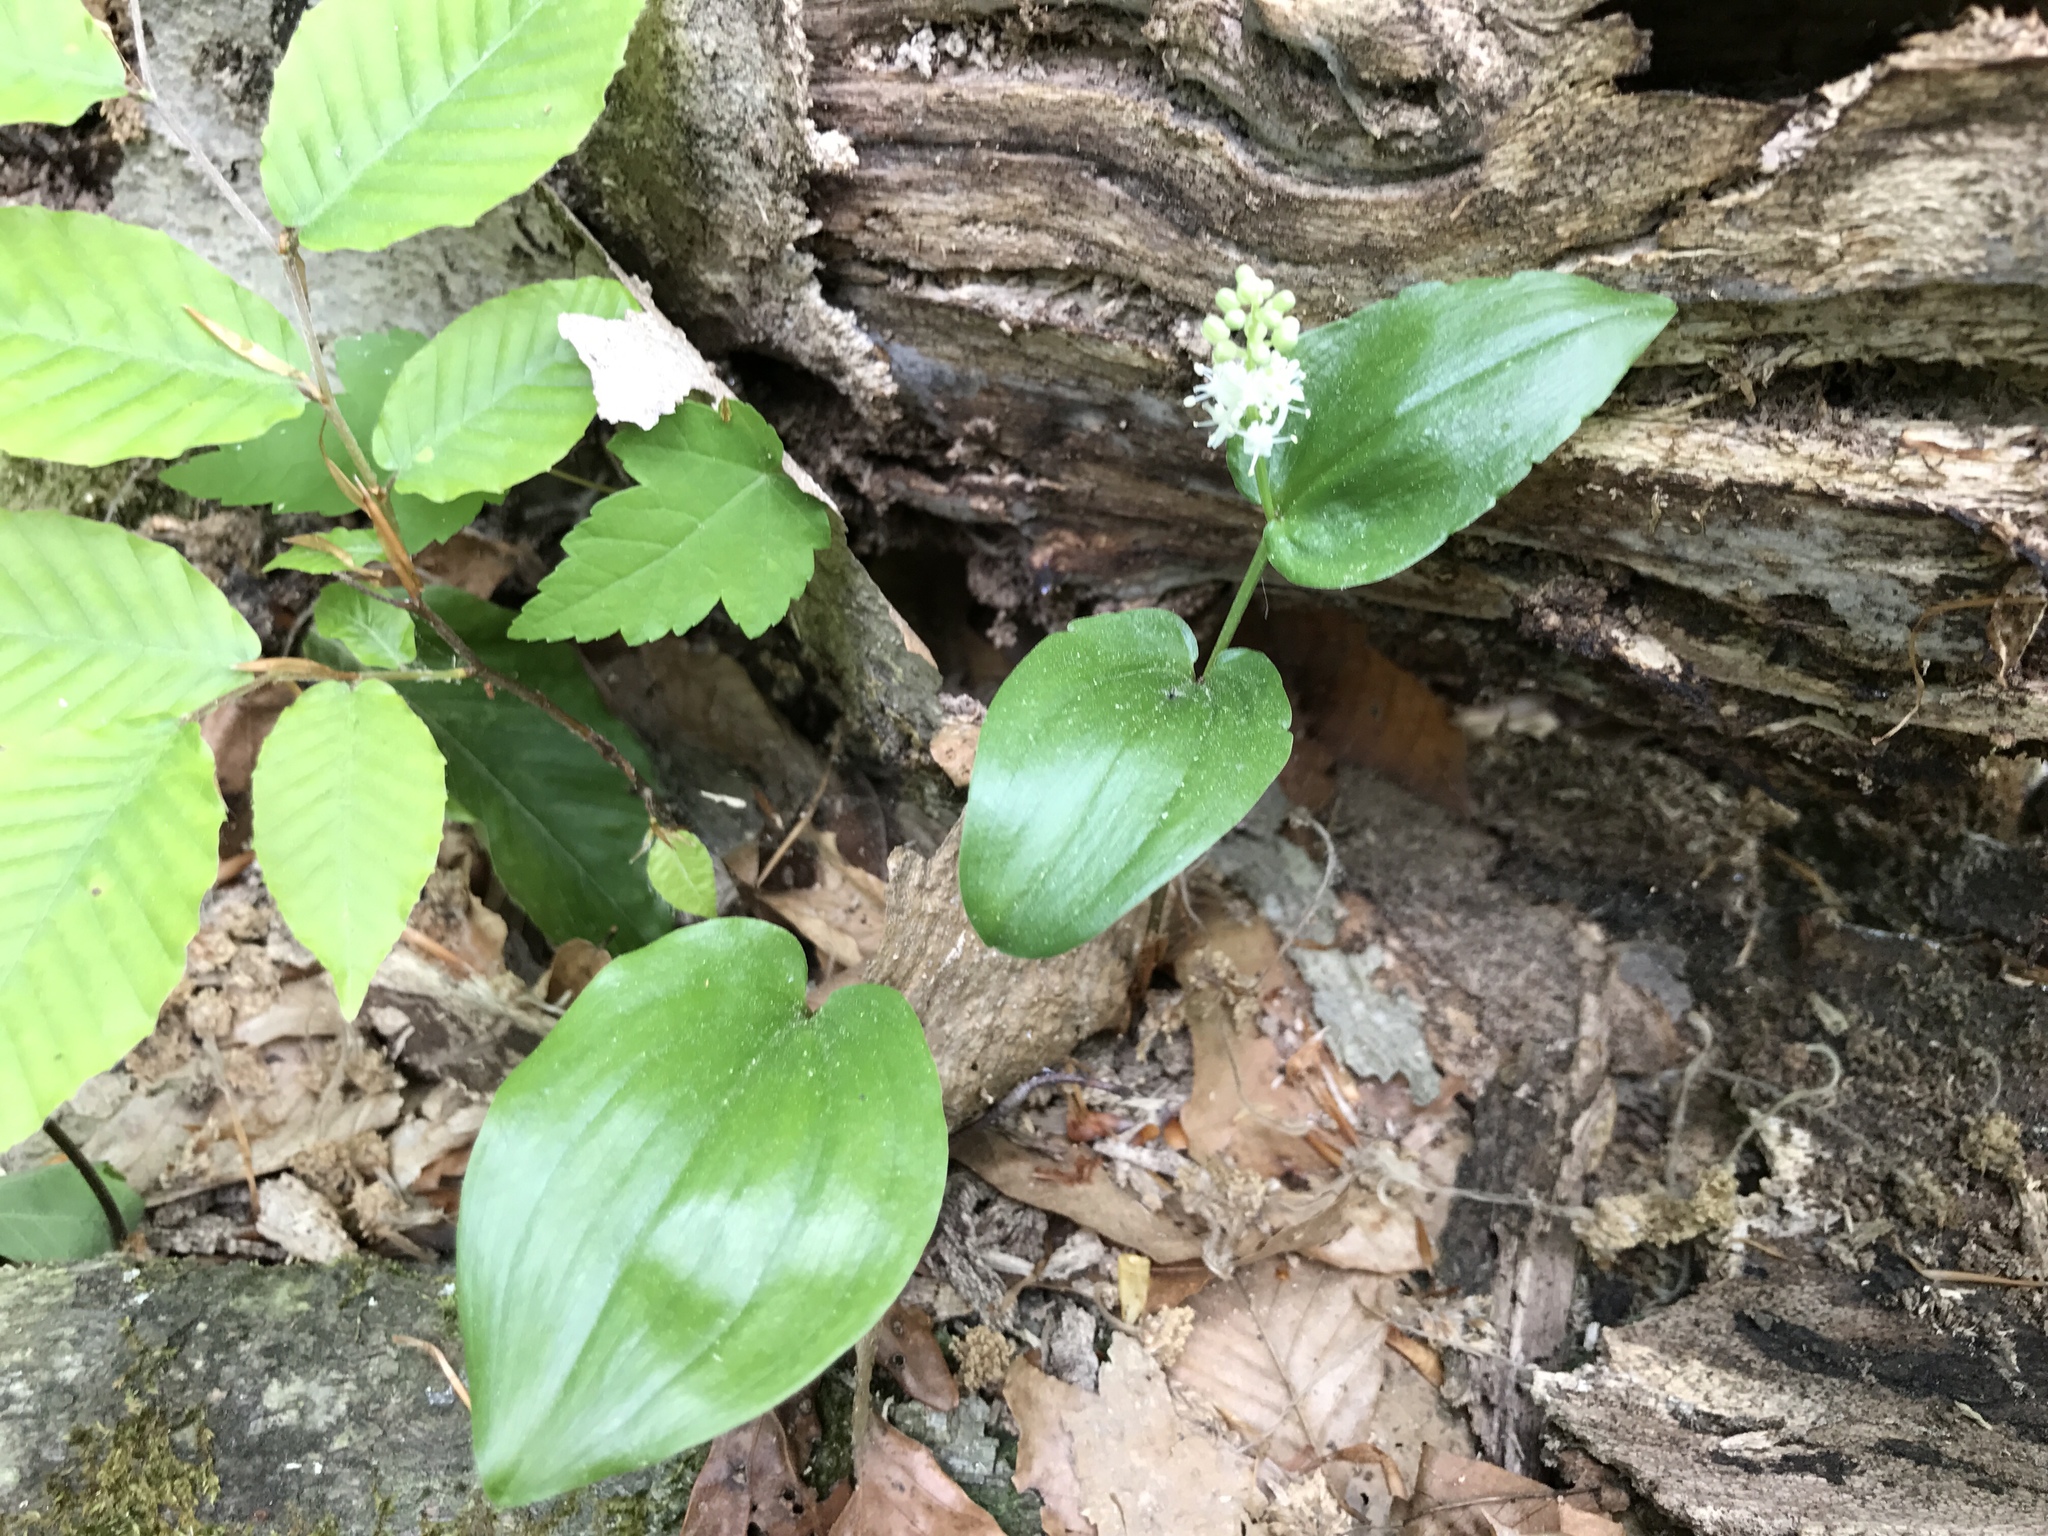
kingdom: Plantae
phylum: Tracheophyta
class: Liliopsida
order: Asparagales
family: Asparagaceae
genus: Maianthemum
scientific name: Maianthemum canadense
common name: False lily-of-the-valley
